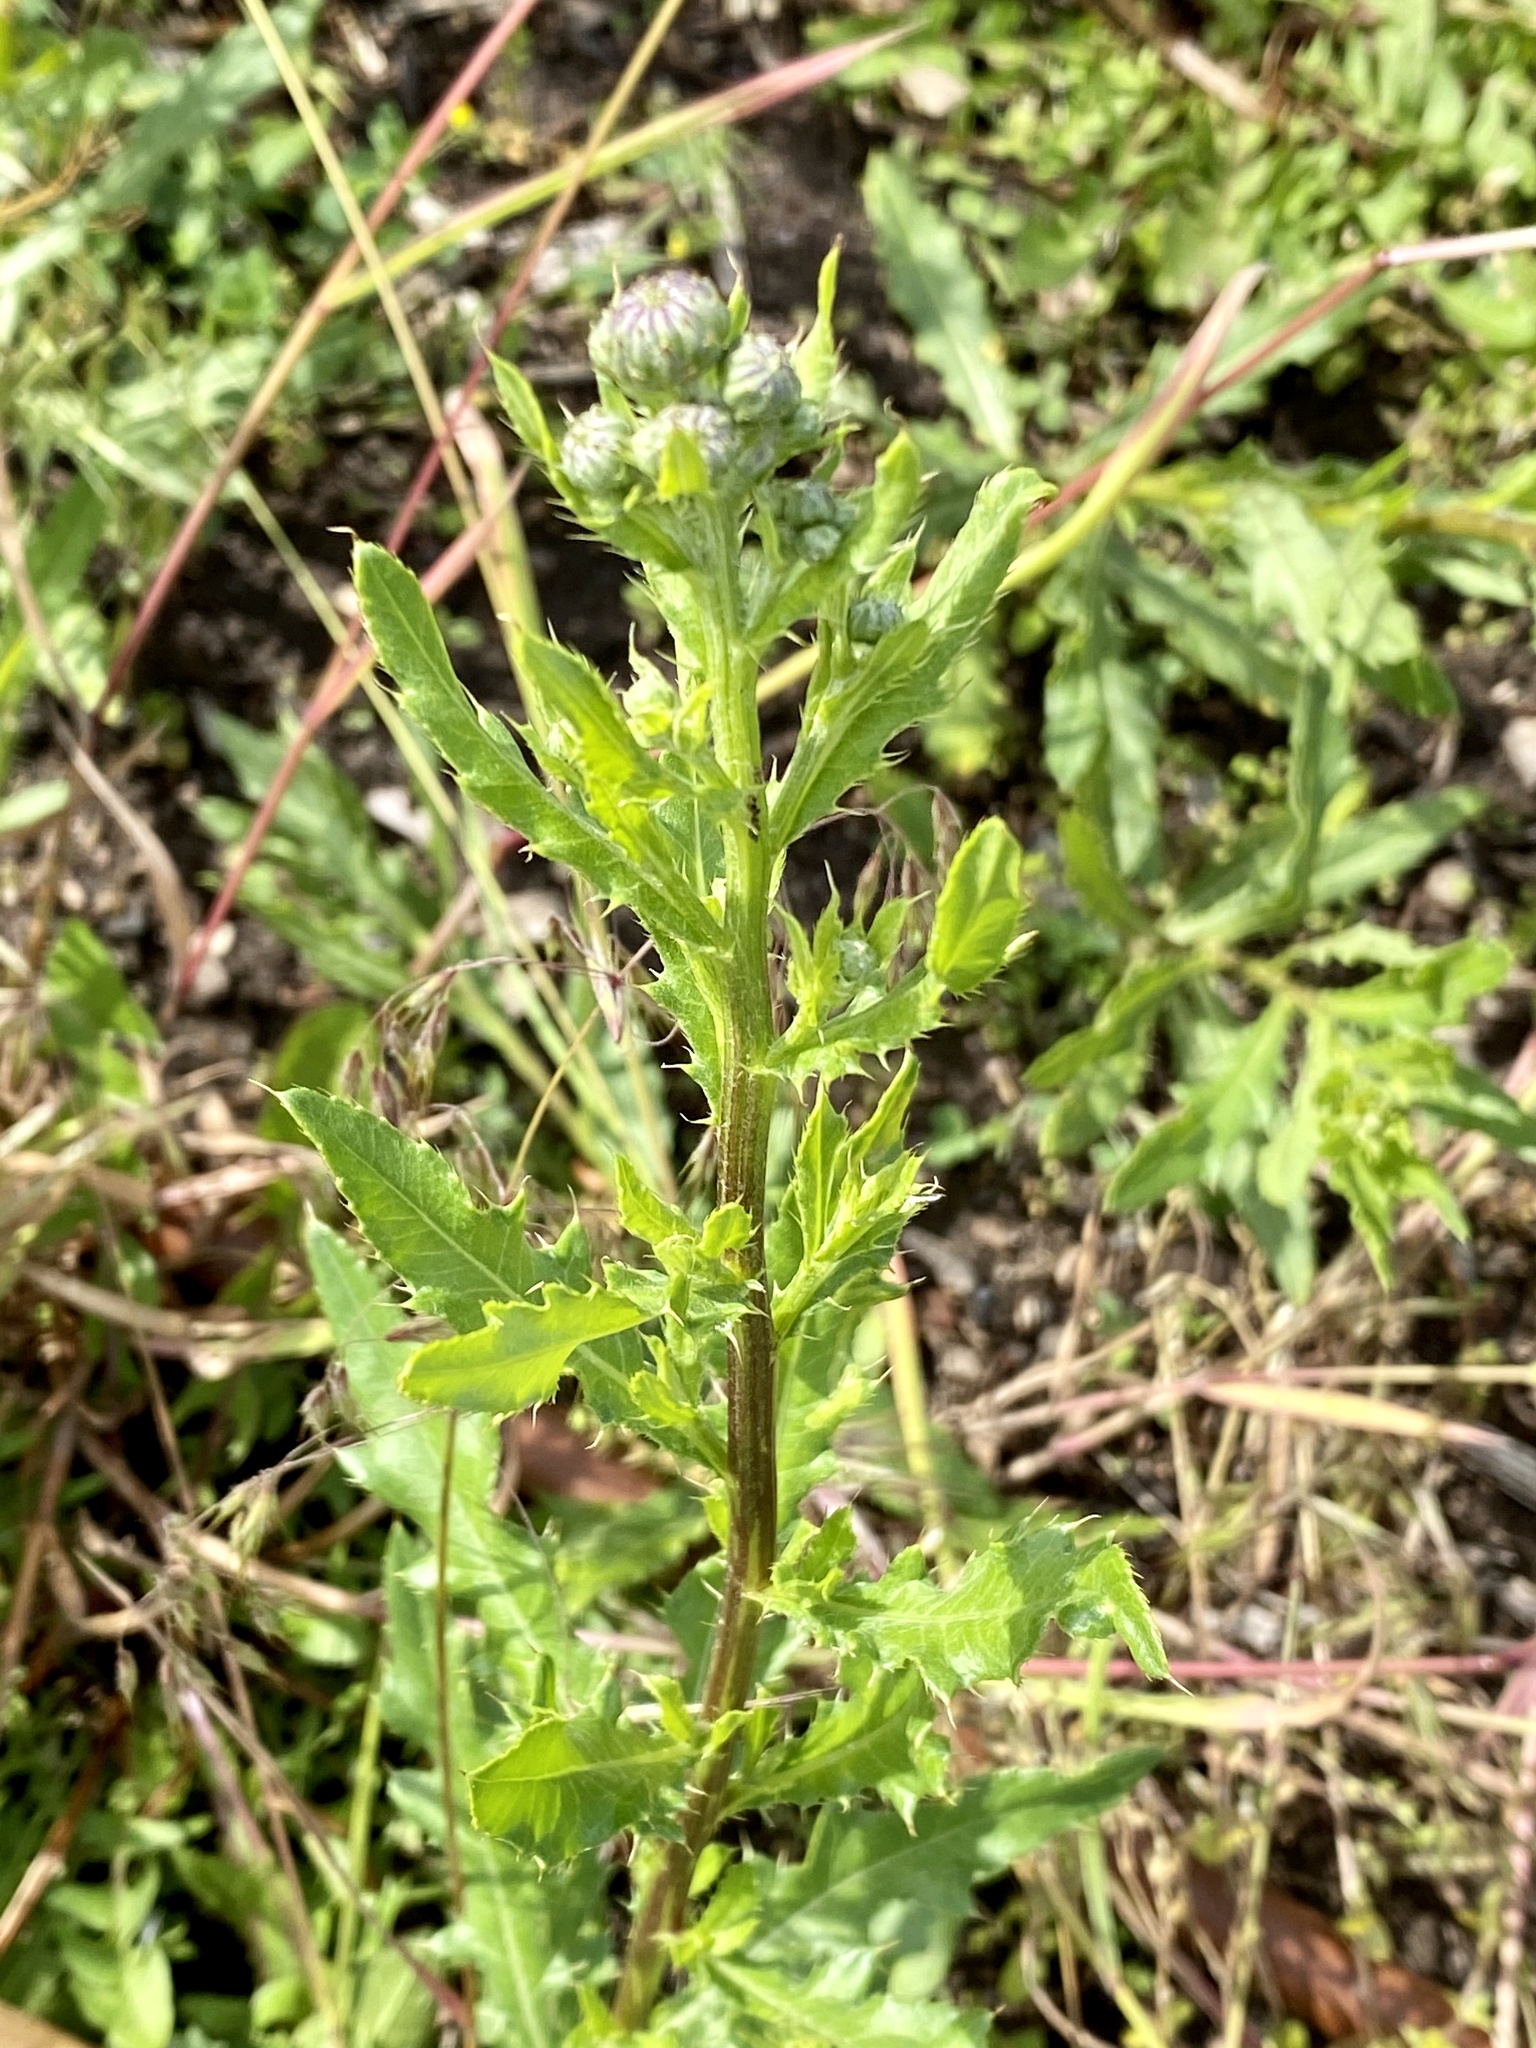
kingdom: Plantae
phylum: Tracheophyta
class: Magnoliopsida
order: Asterales
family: Asteraceae
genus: Cirsium
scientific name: Cirsium arvense
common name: Creeping thistle
